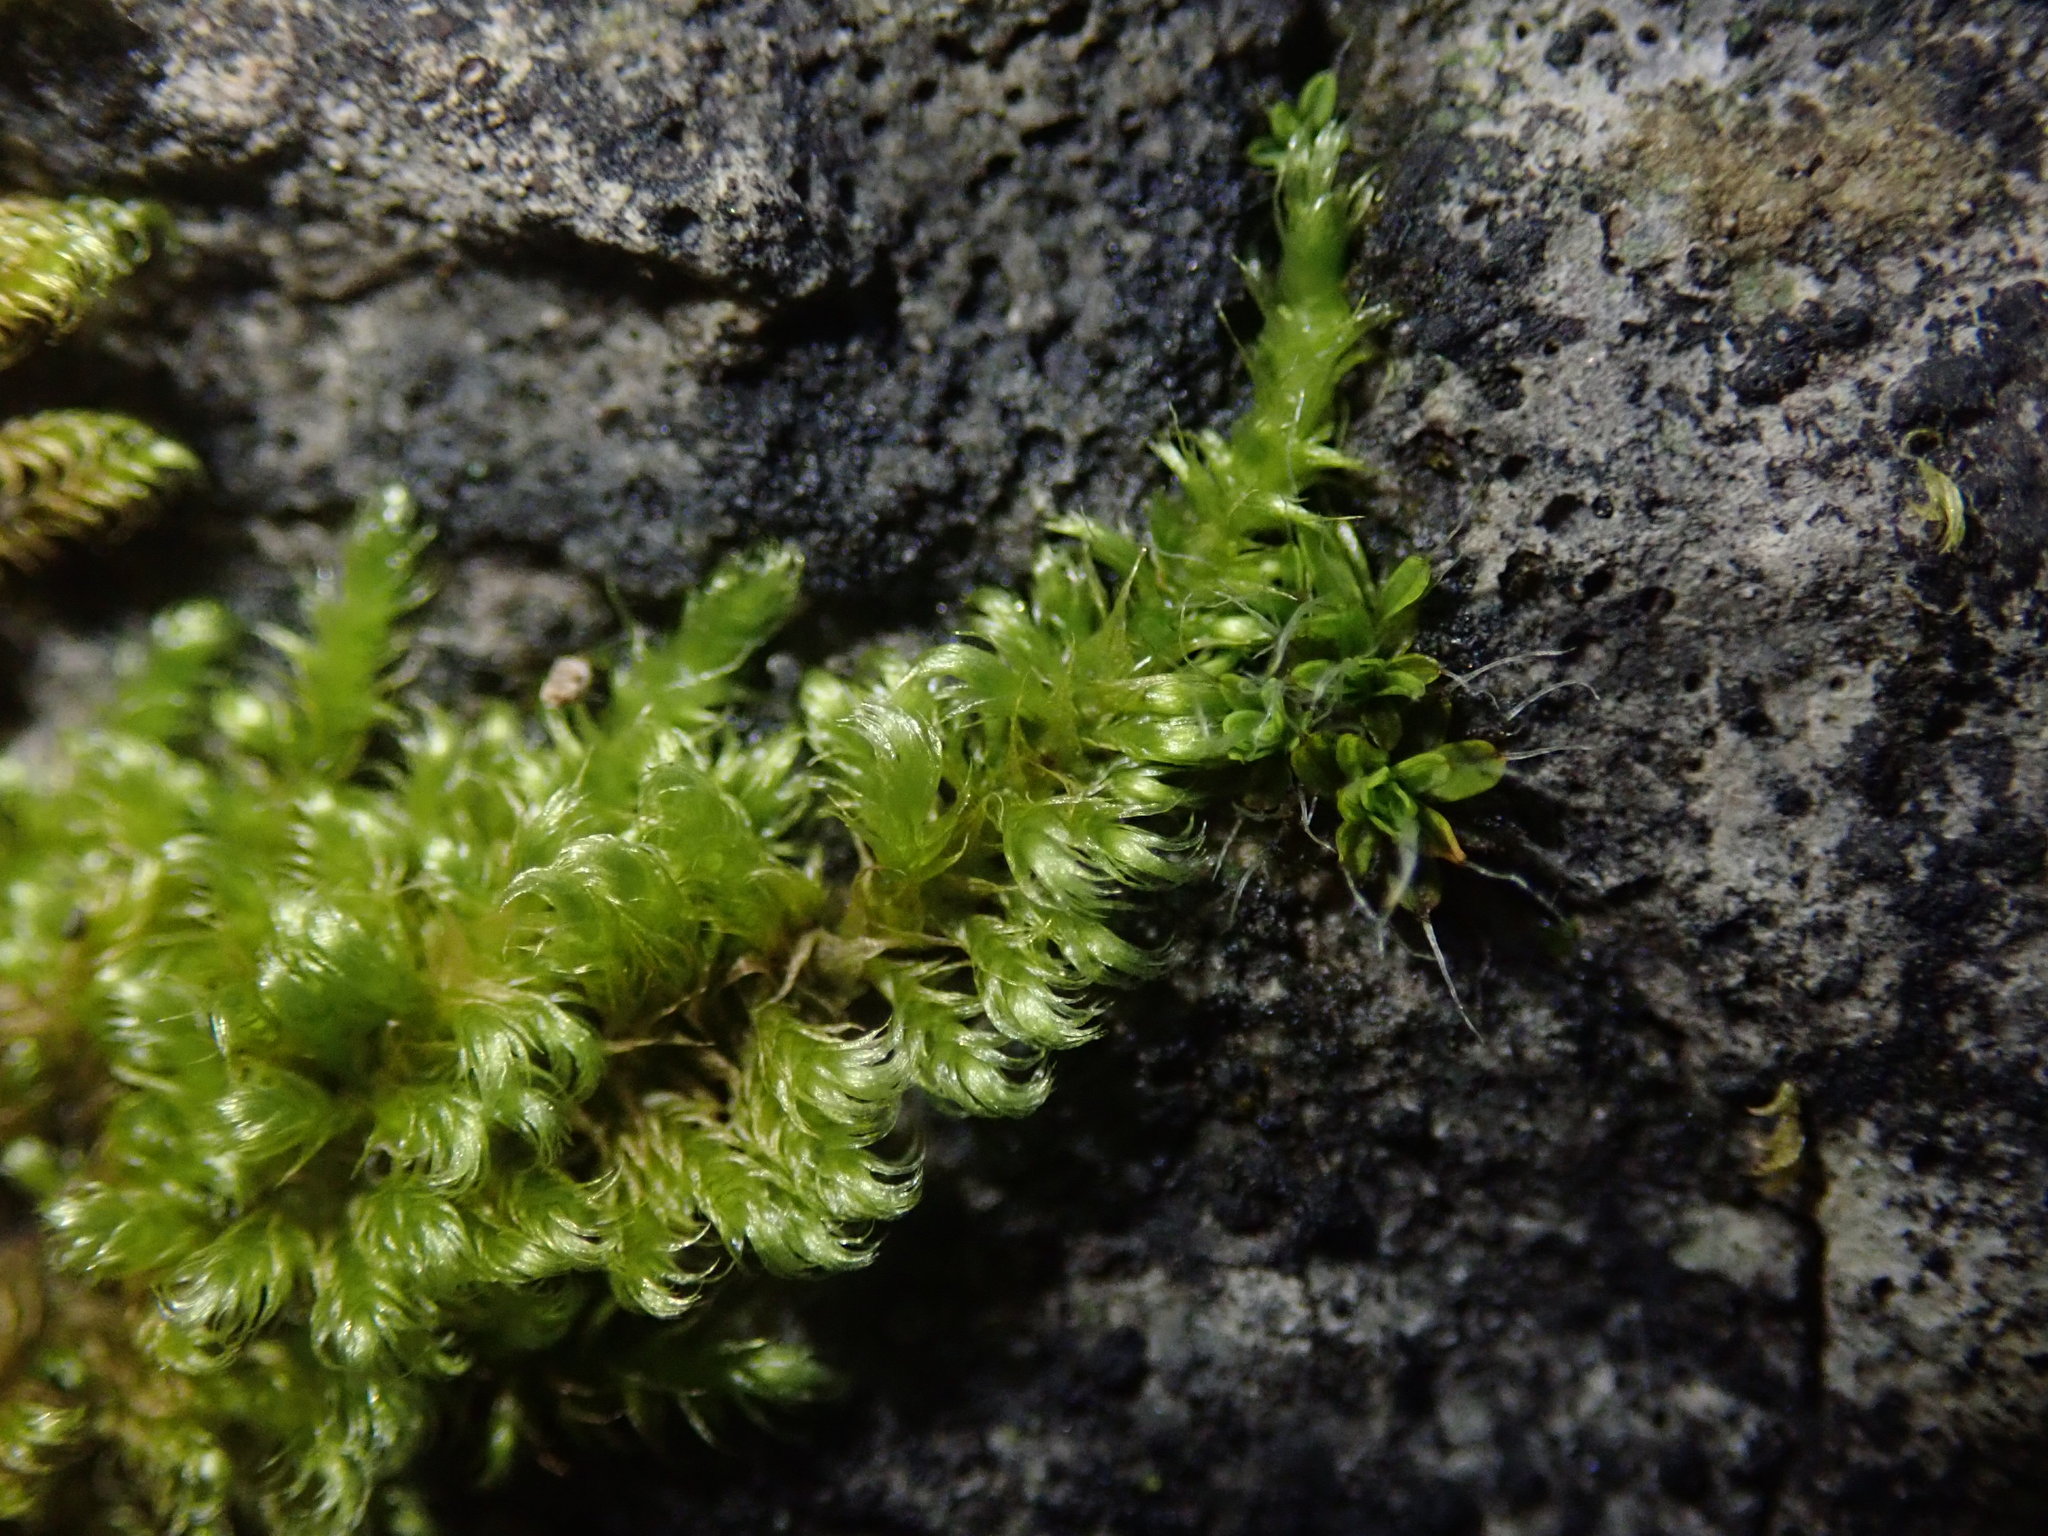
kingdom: Plantae
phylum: Bryophyta
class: Bryopsida
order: Hypnales
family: Myuriaceae
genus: Ctenidium
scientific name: Ctenidium molluscum
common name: Chalk comb-moss
